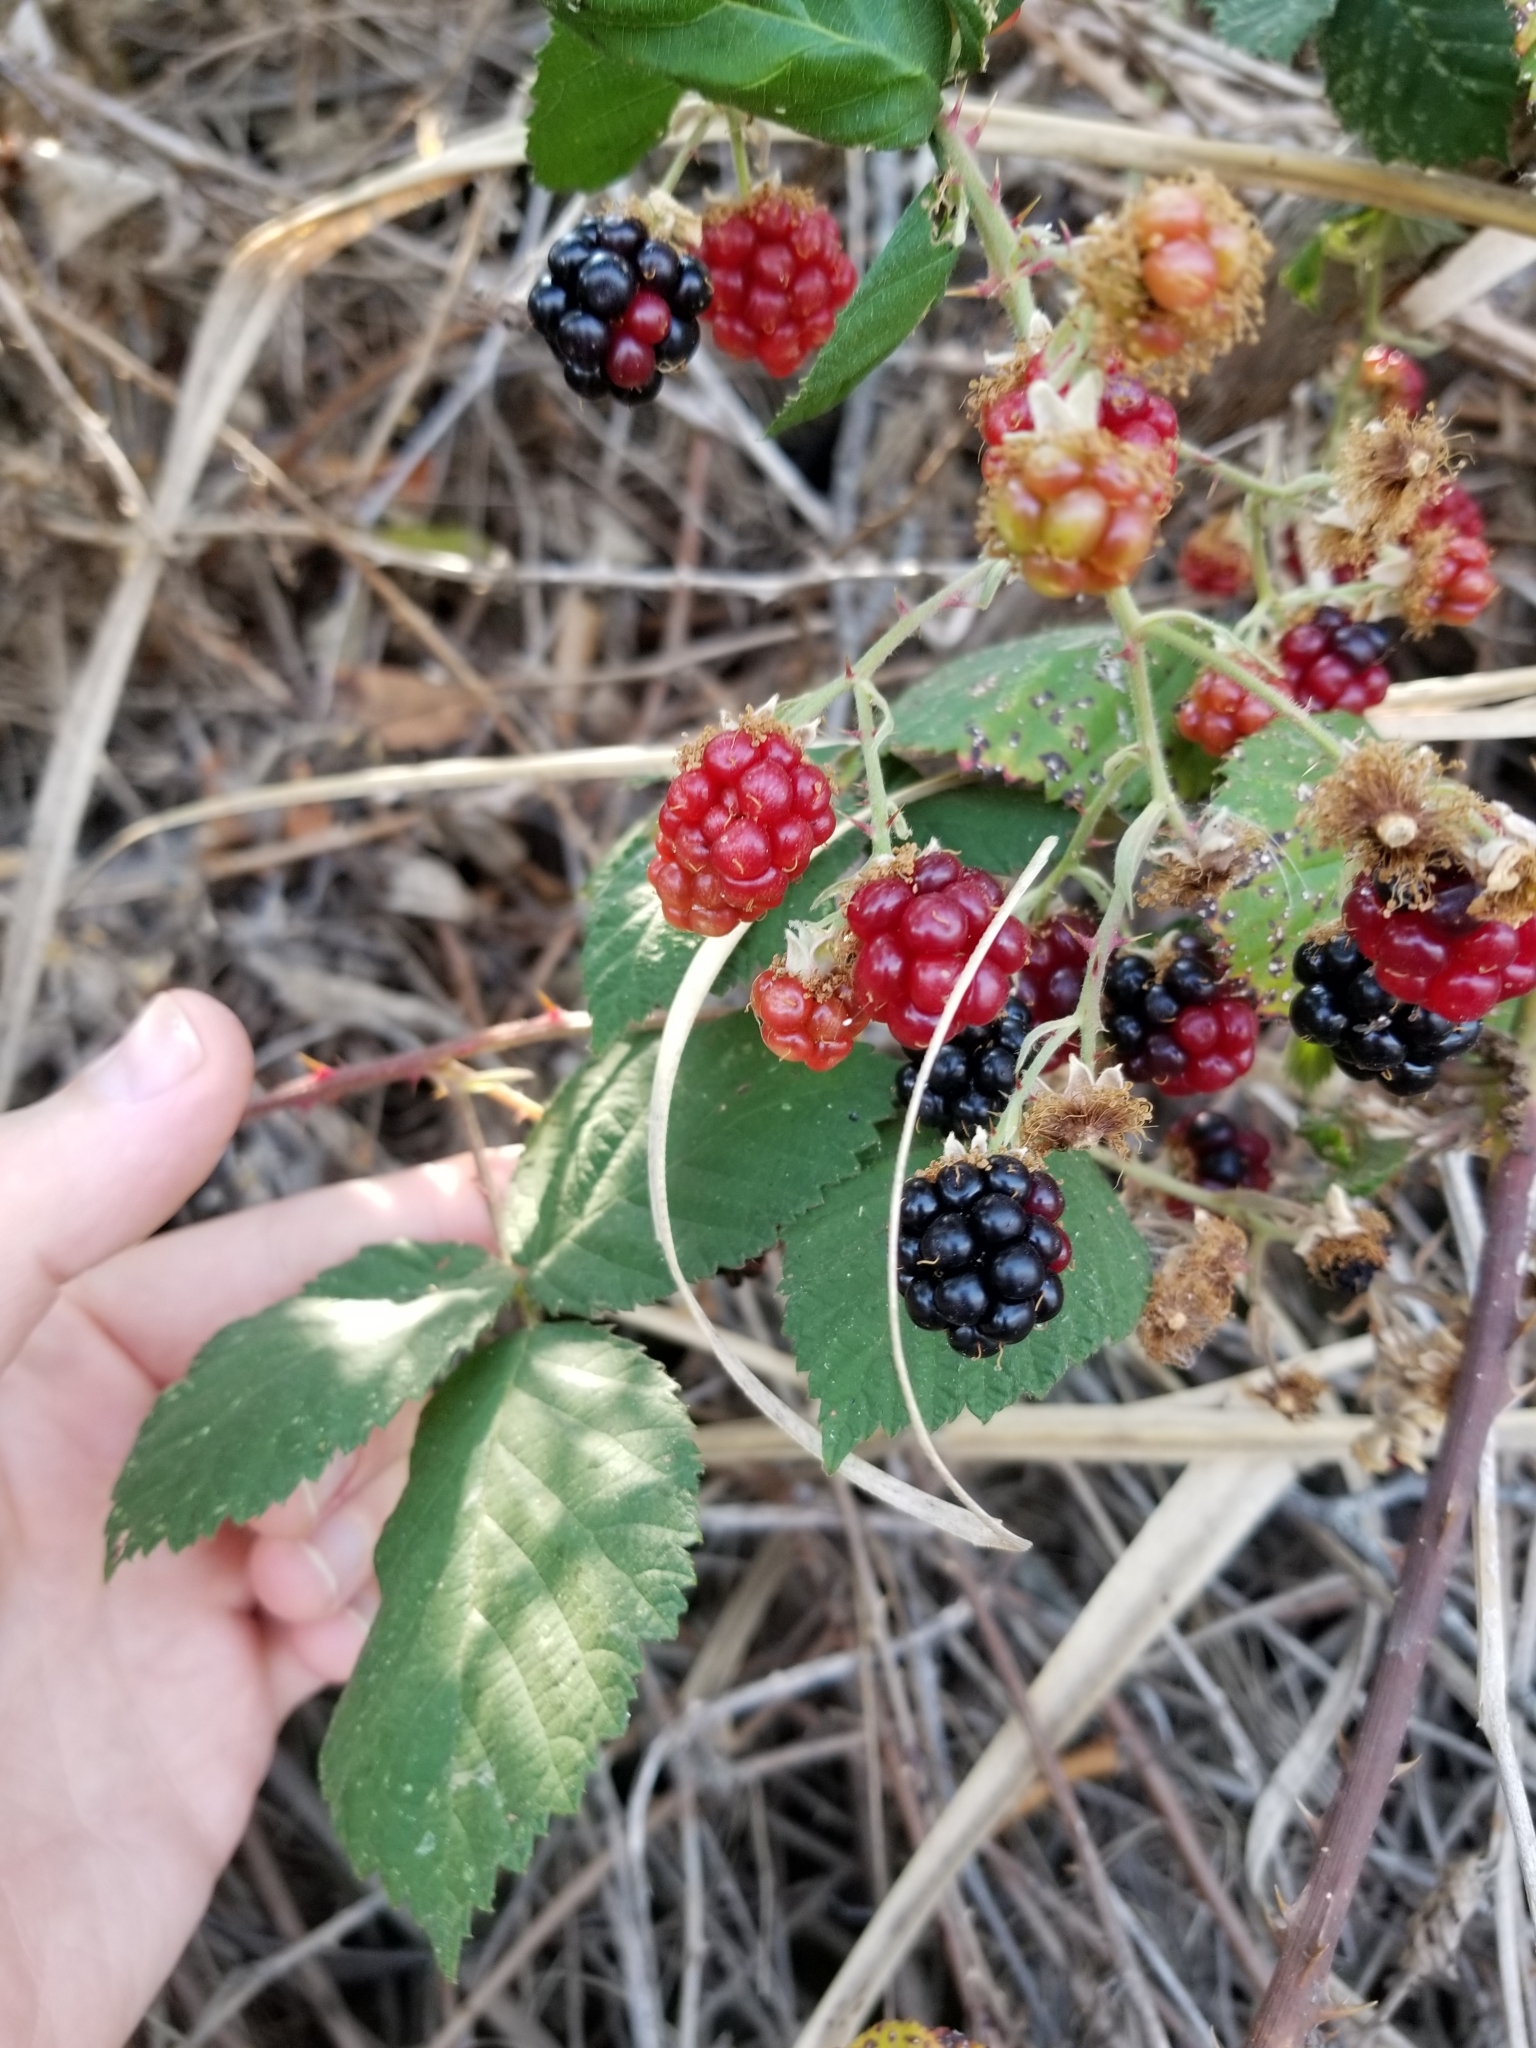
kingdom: Plantae
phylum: Tracheophyta
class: Magnoliopsida
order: Rosales
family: Rosaceae
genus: Rubus
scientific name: Rubus armeniacus
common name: Himalayan blackberry
